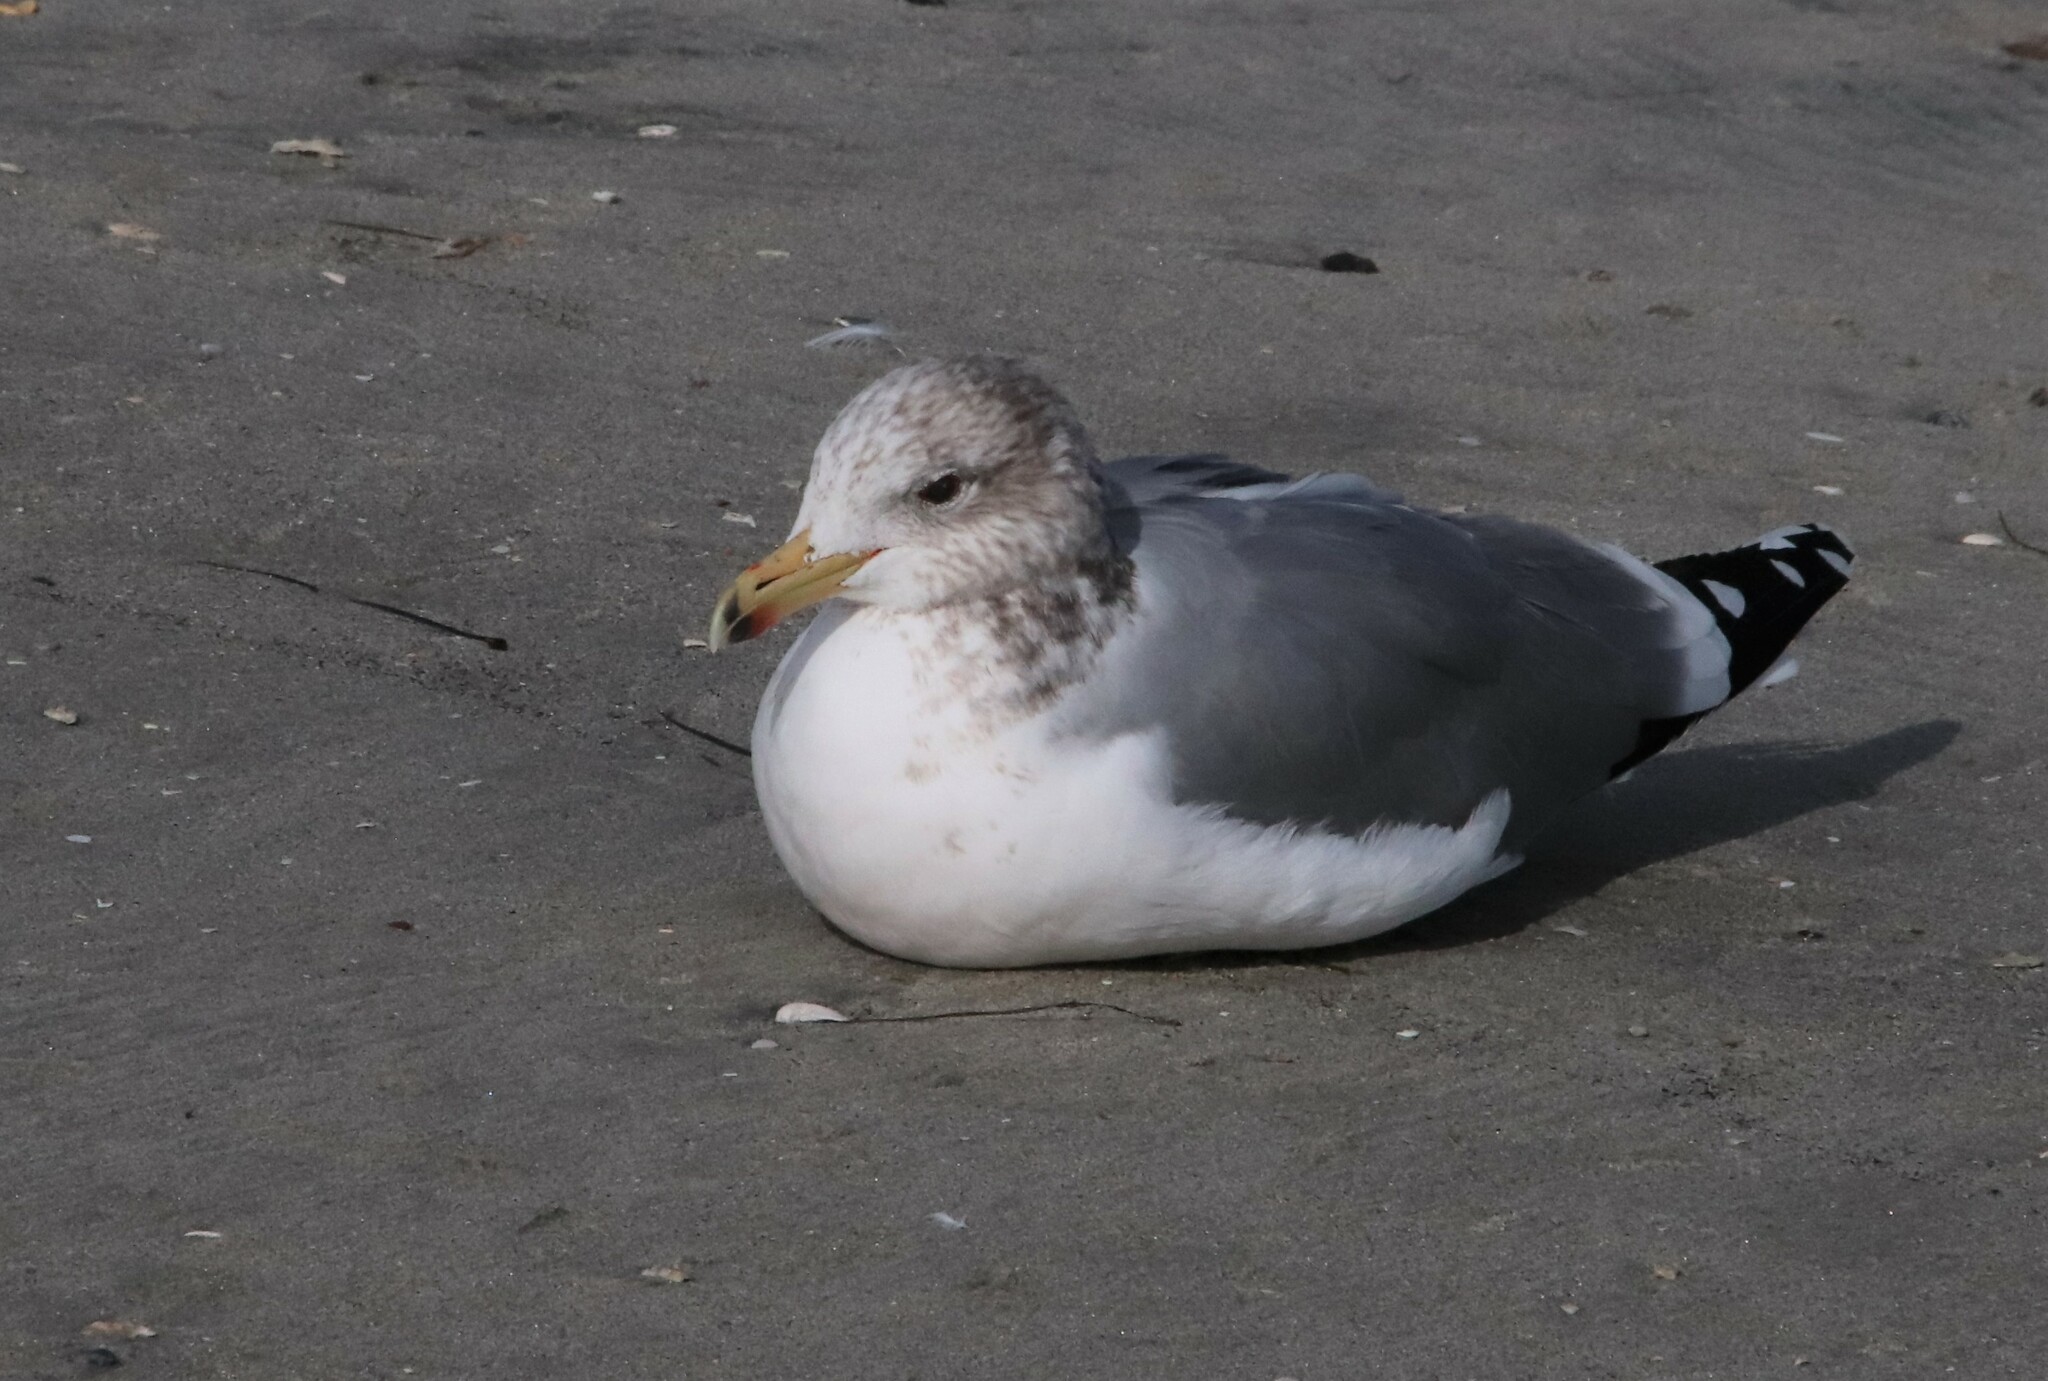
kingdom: Animalia
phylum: Chordata
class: Aves
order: Charadriiformes
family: Laridae
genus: Larus
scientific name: Larus californicus
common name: California gull
